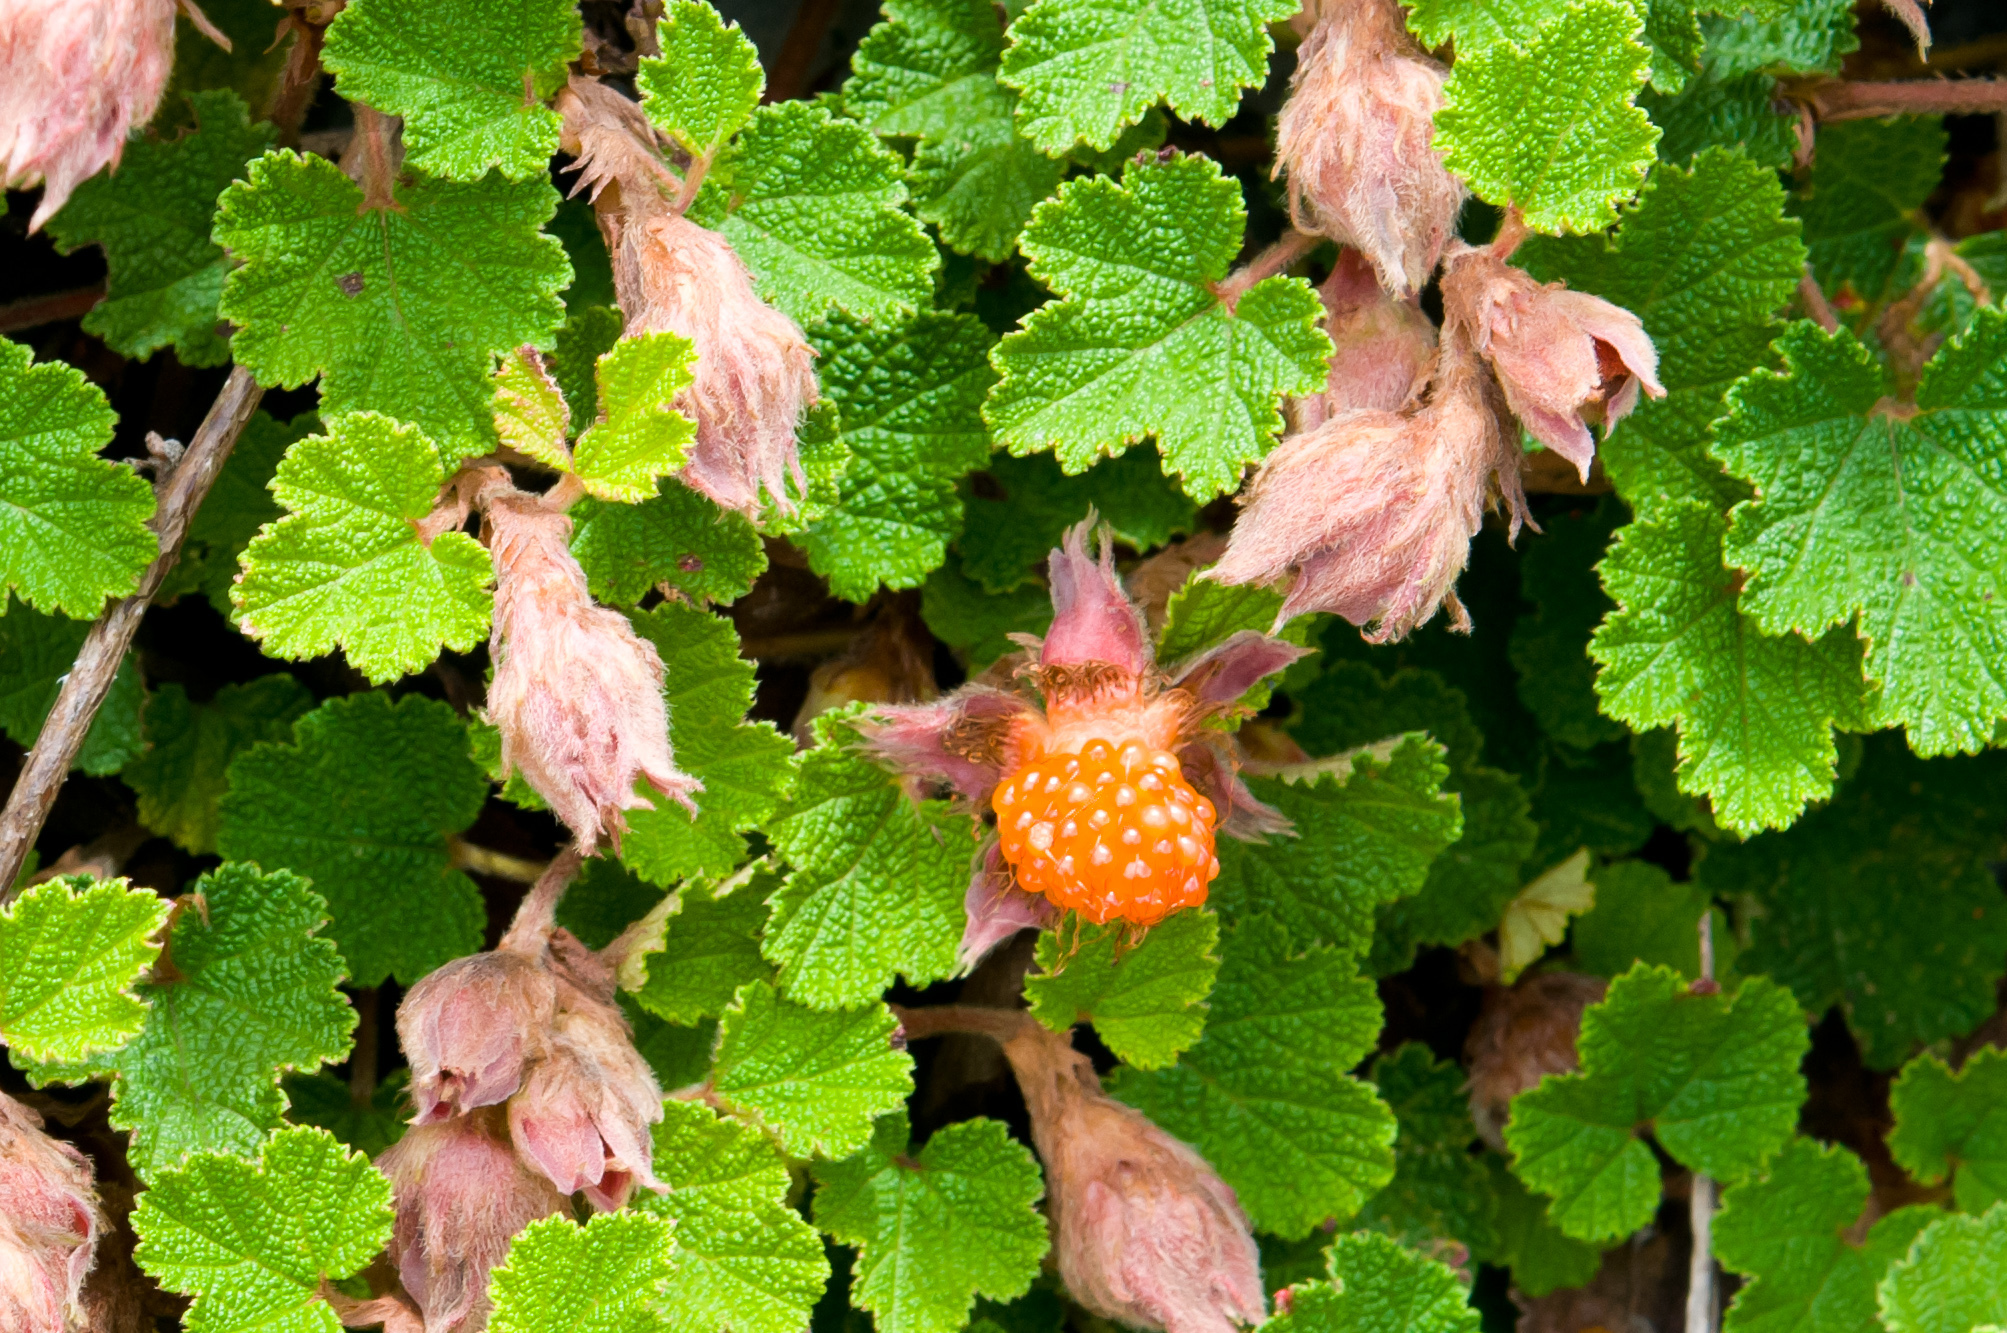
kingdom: Plantae
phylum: Tracheophyta
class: Magnoliopsida
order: Rosales
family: Rosaceae
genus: Rubus
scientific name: Rubus rolfei
